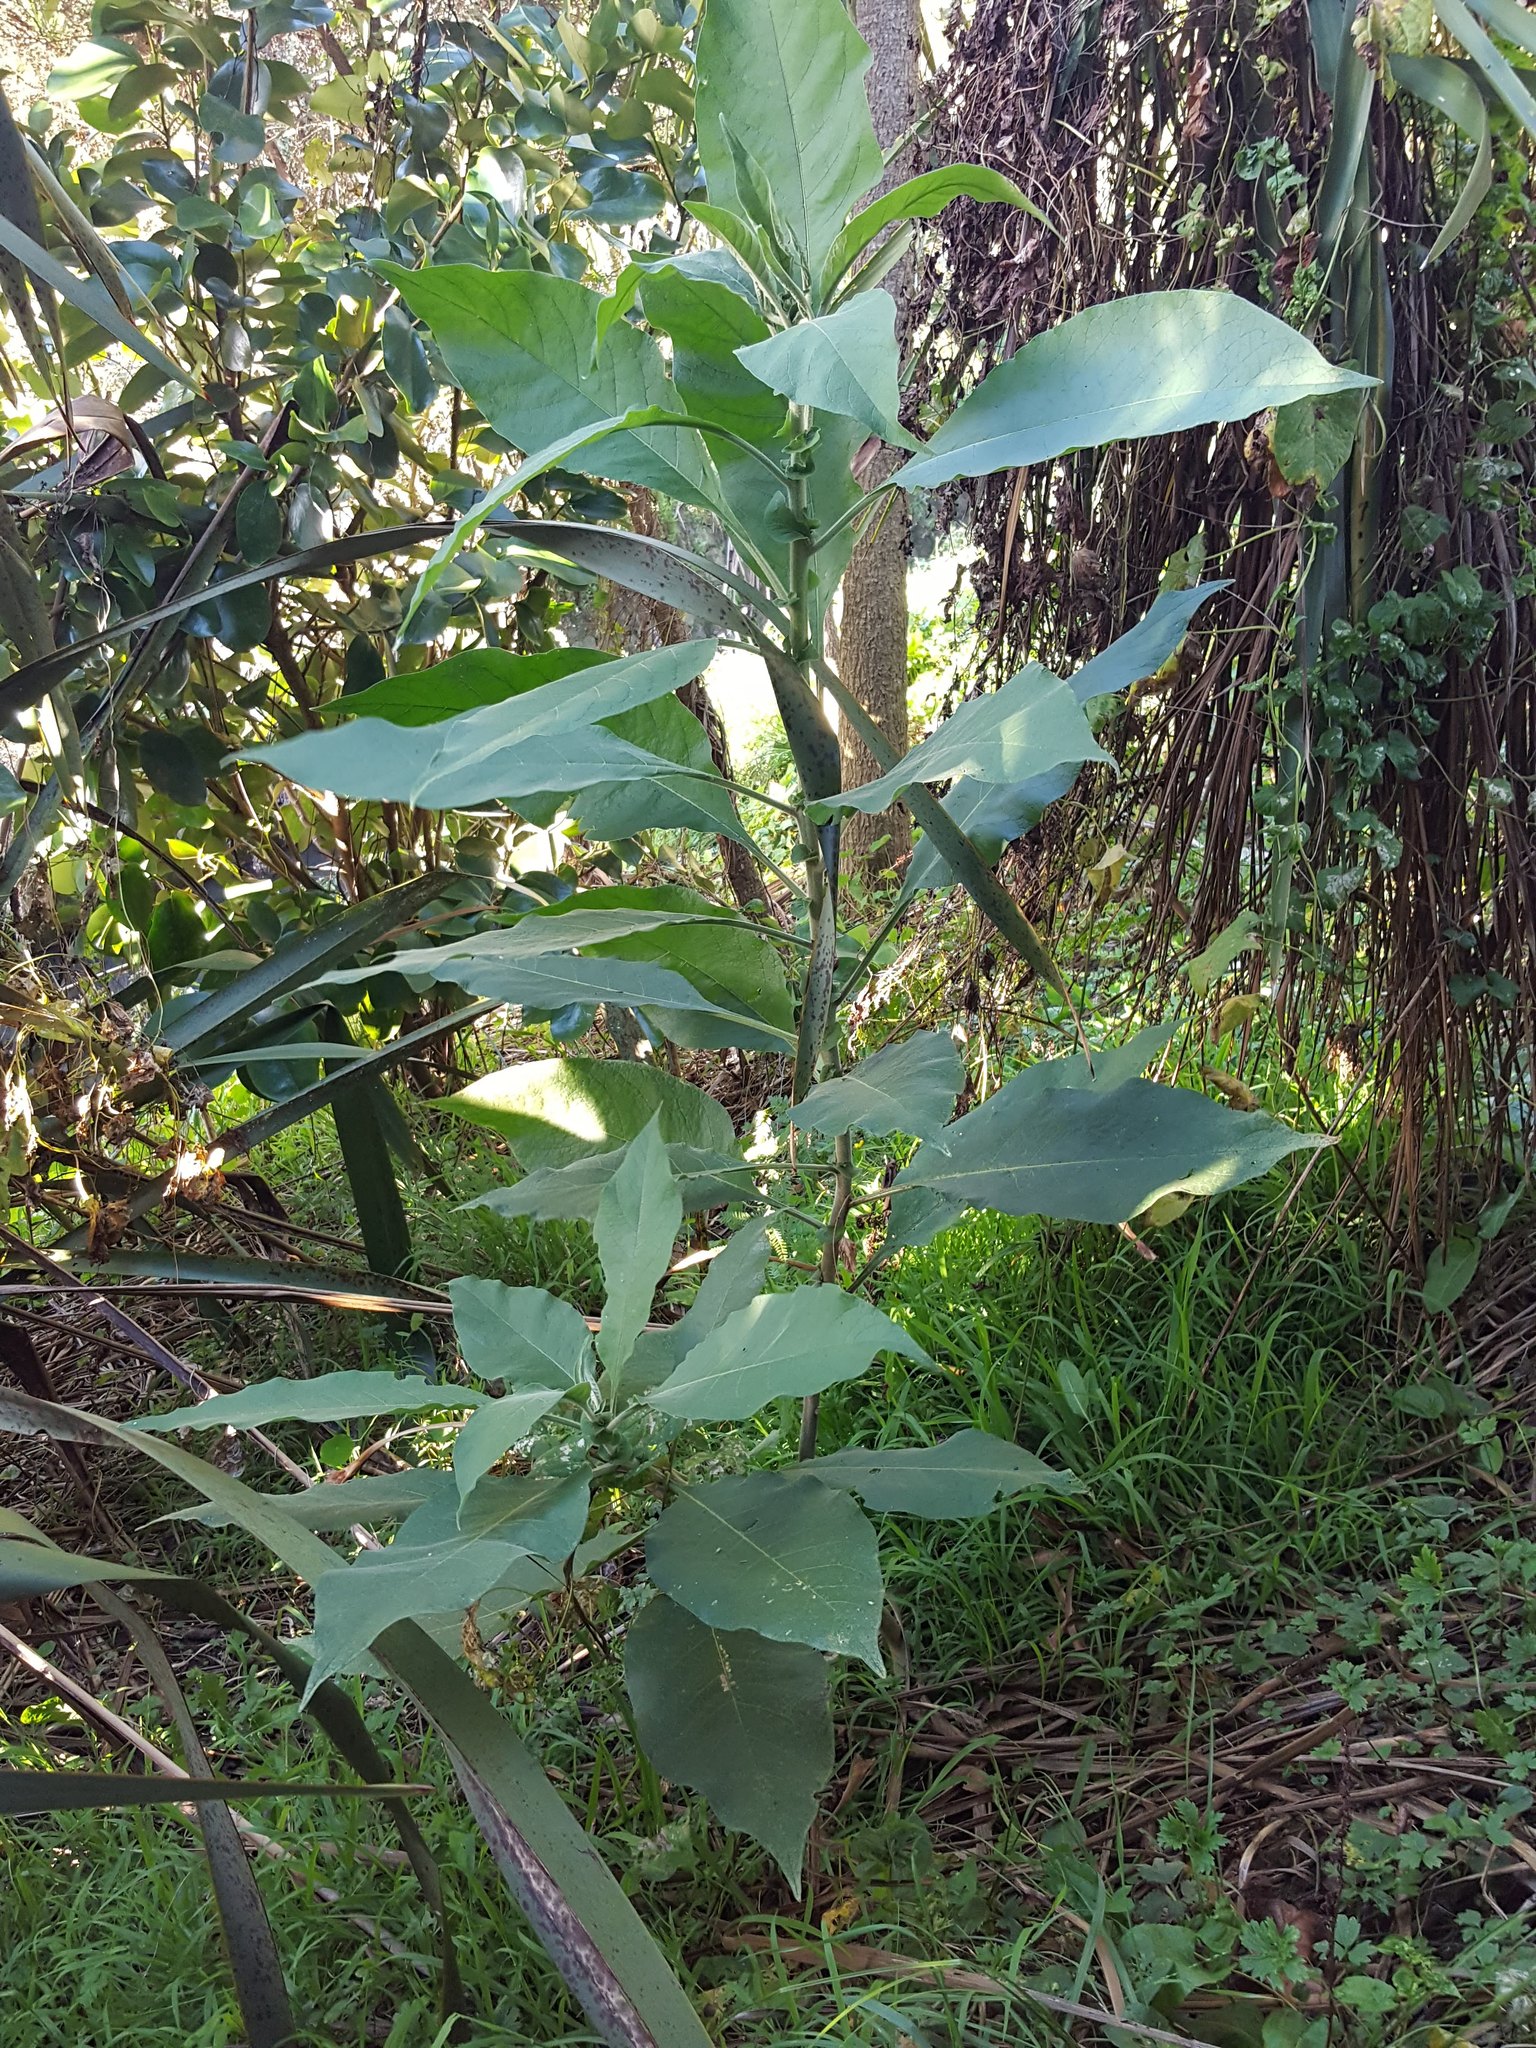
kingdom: Plantae
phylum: Tracheophyta
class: Magnoliopsida
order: Solanales
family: Solanaceae
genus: Solanum
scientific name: Solanum mauritianum
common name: Earleaf nightshade
